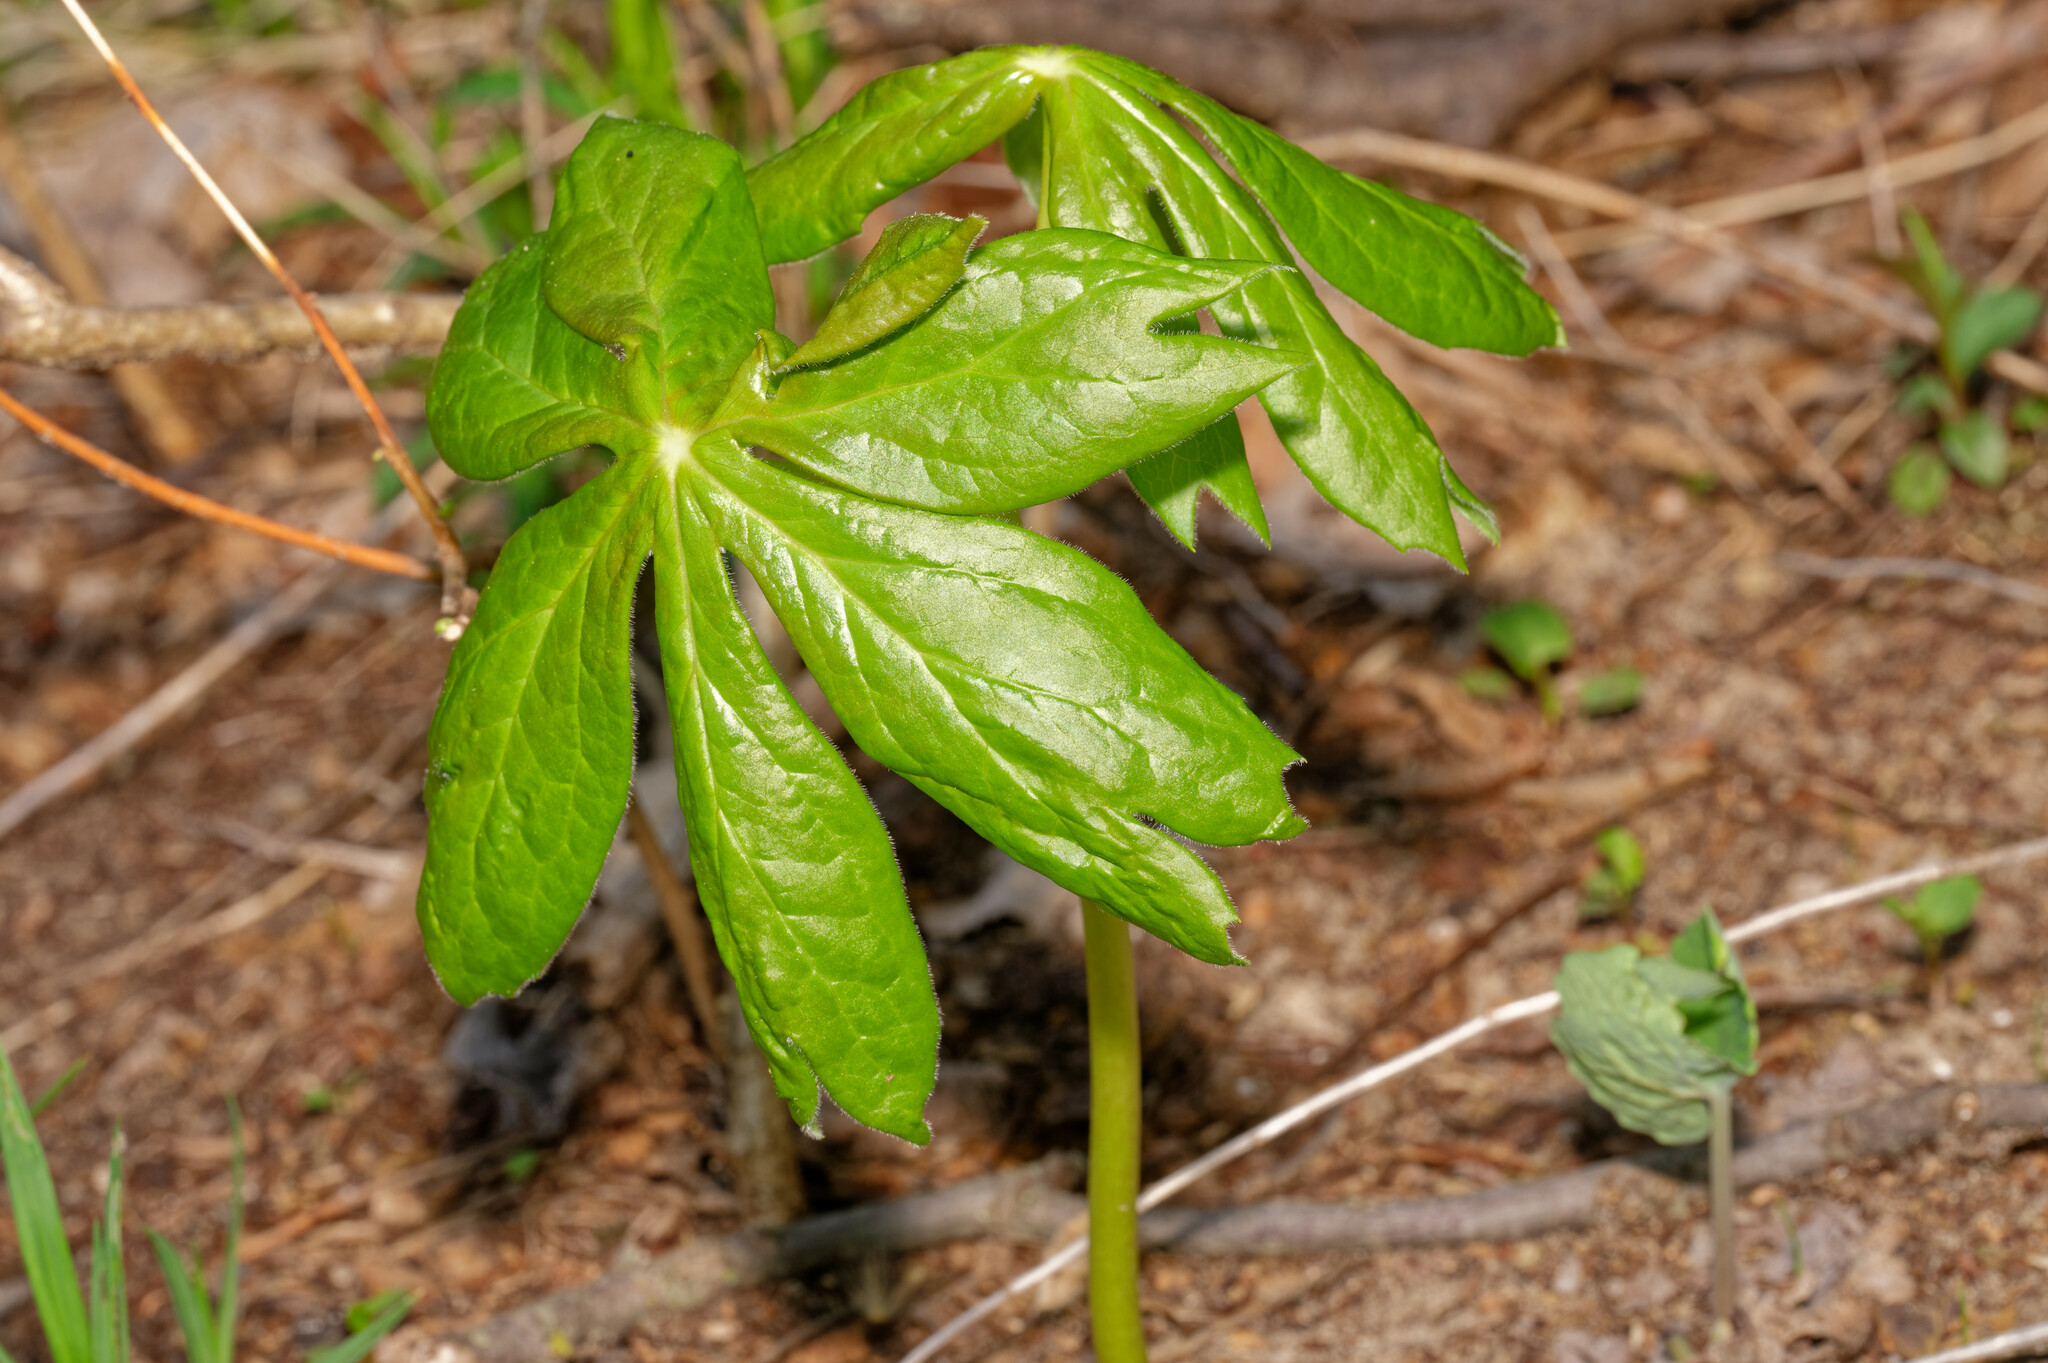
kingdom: Plantae
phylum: Tracheophyta
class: Magnoliopsida
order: Ranunculales
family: Berberidaceae
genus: Podophyllum
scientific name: Podophyllum peltatum
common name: Wild mandrake
